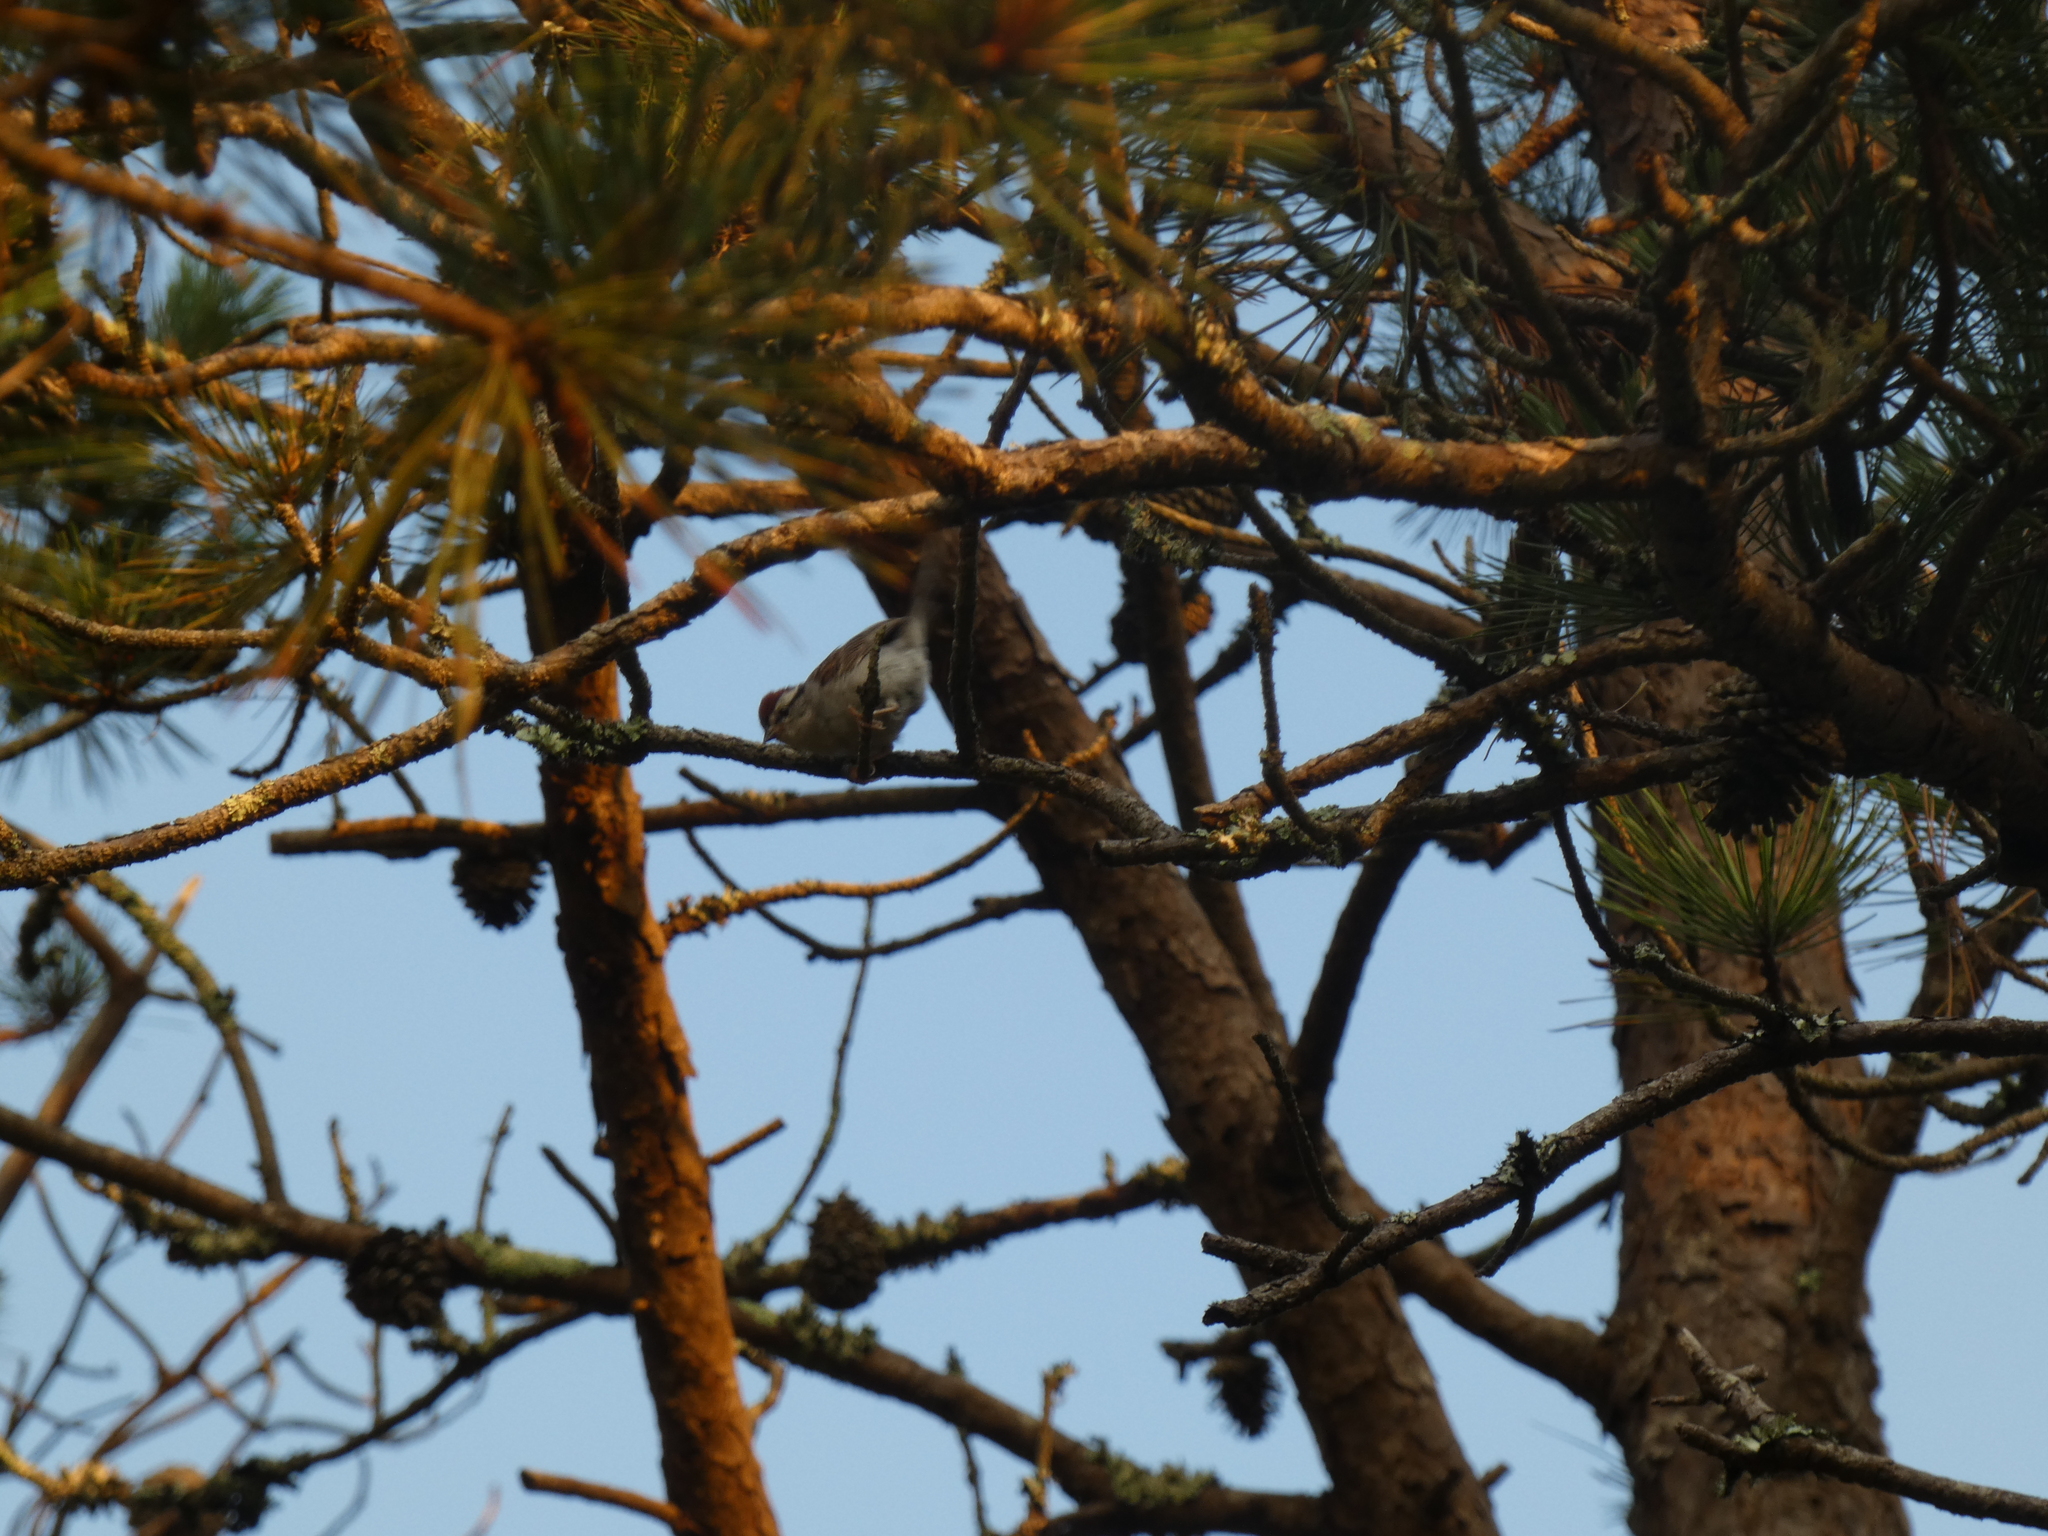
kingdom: Animalia
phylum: Chordata
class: Aves
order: Passeriformes
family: Passerellidae
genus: Spizella
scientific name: Spizella passerina
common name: Chipping sparrow
